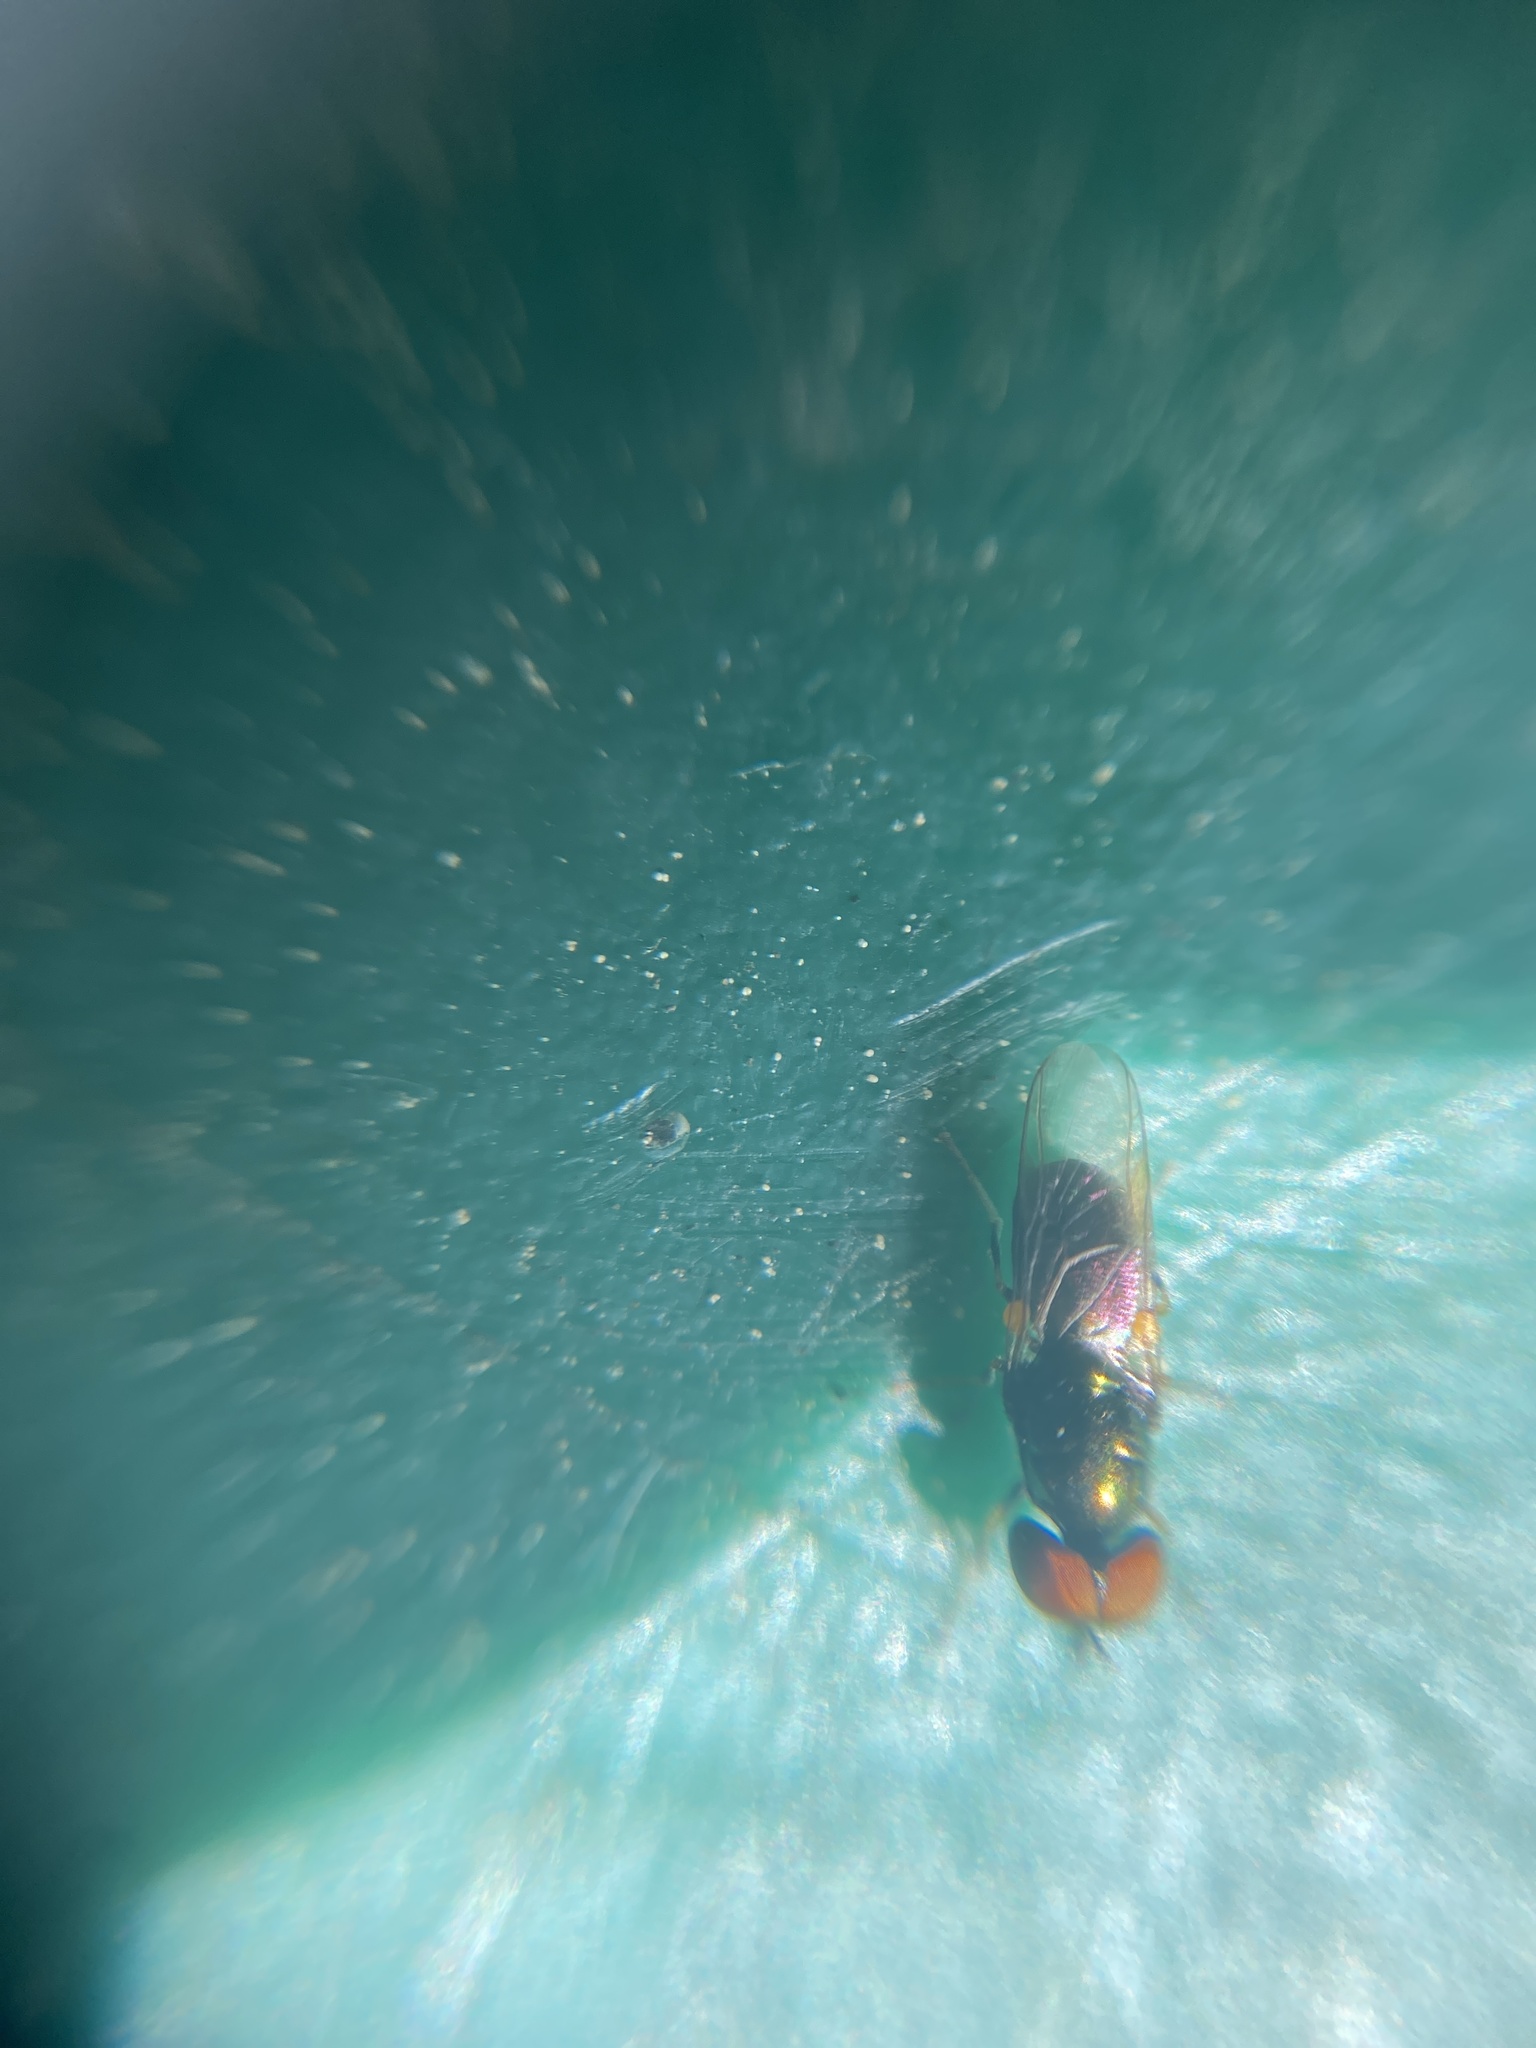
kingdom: Animalia
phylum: Arthropoda
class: Insecta
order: Diptera
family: Stratiomyidae
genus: Microchrysa
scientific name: Microchrysa polita
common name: Black-horned gem
